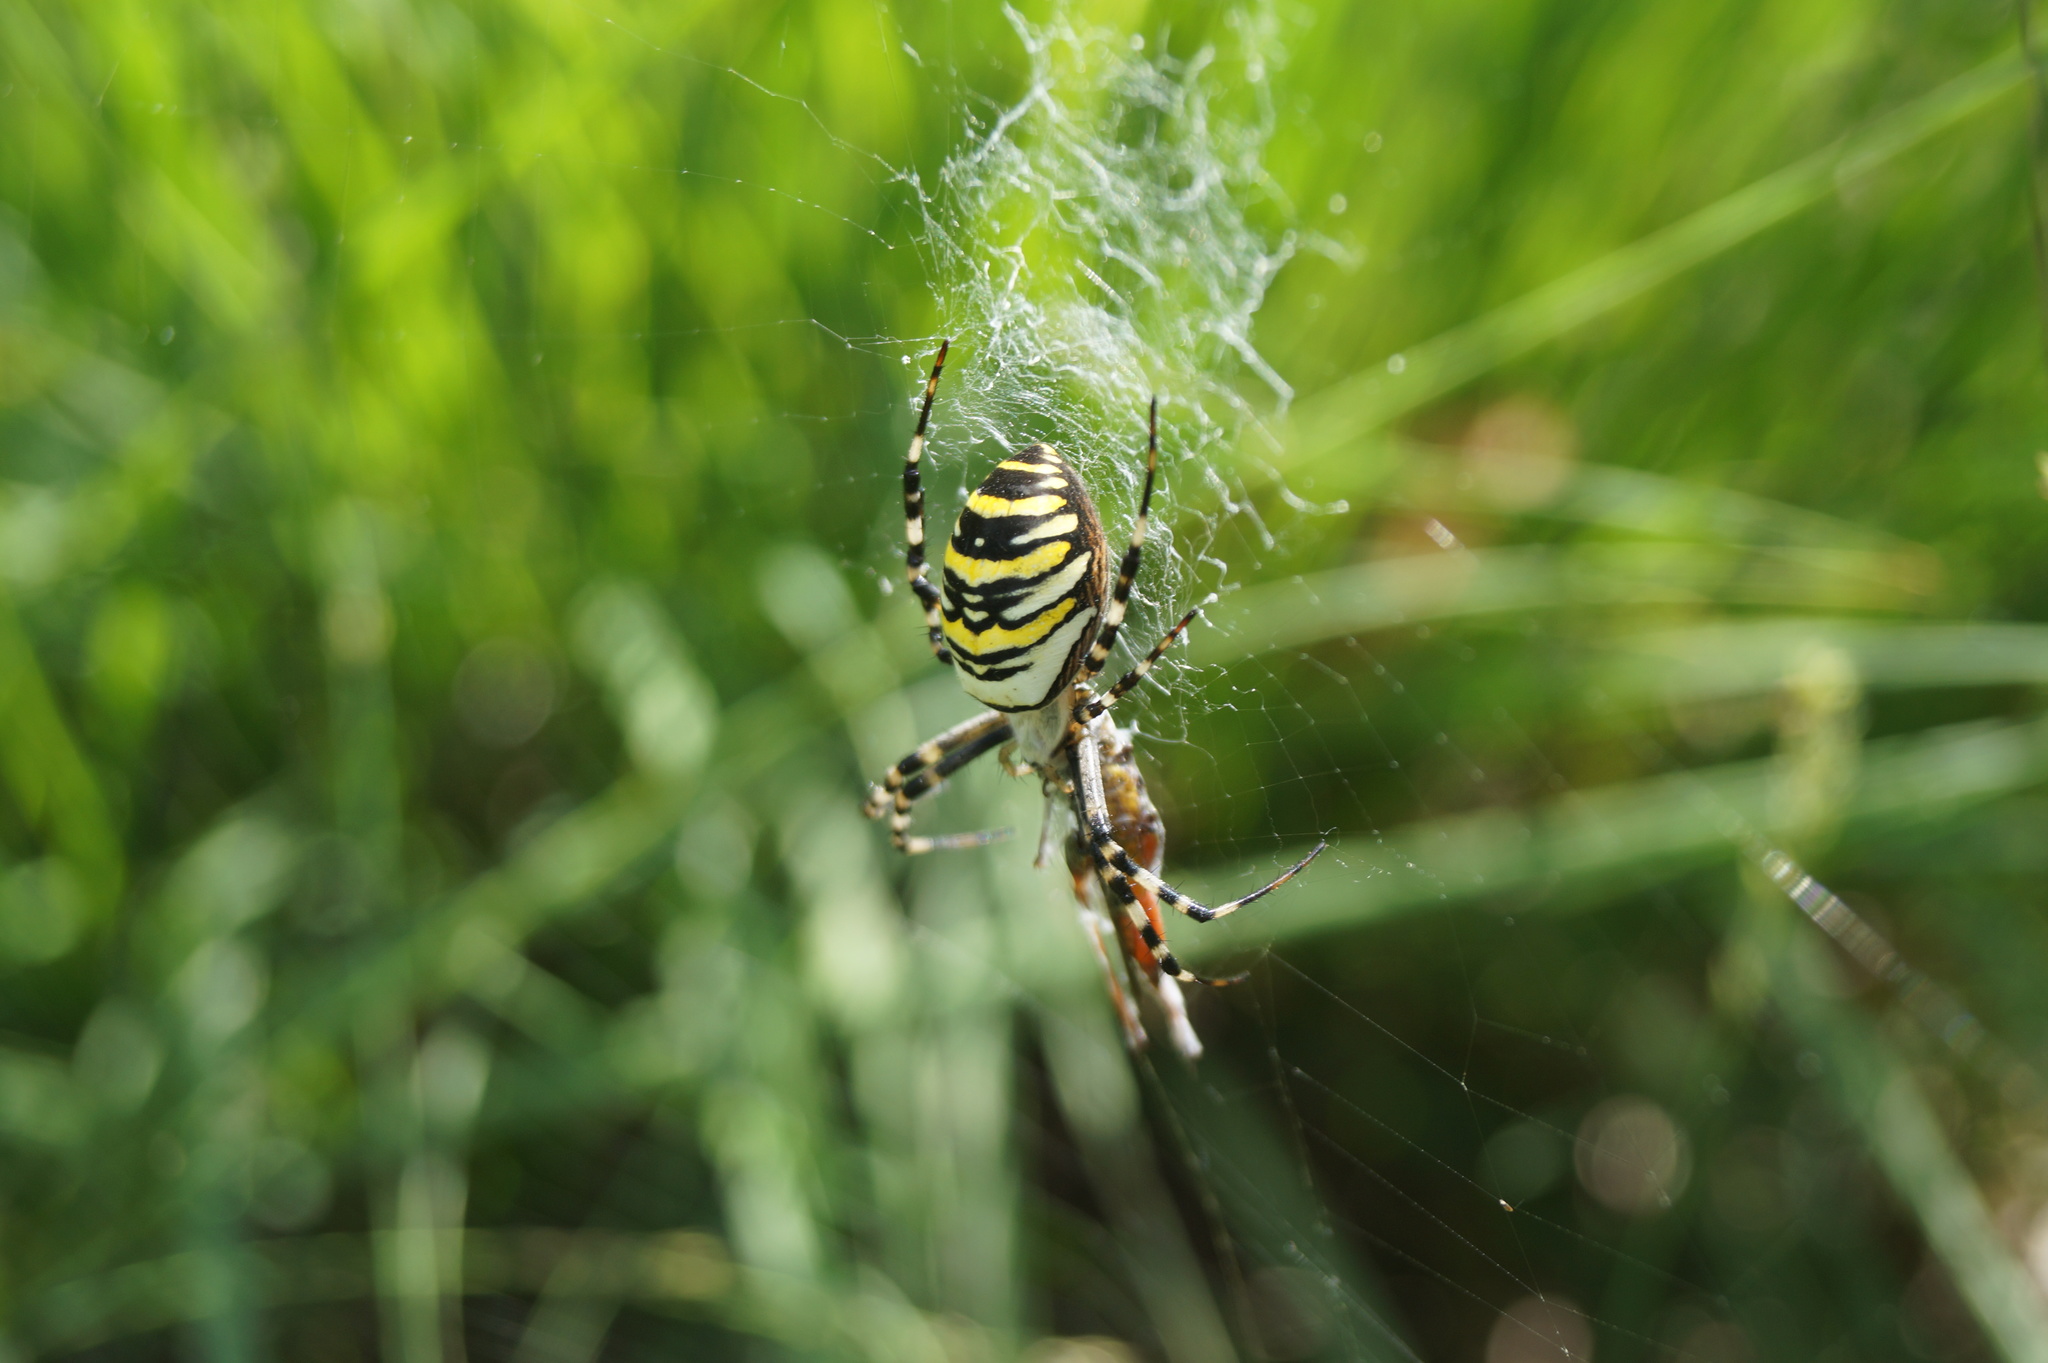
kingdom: Animalia
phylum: Arthropoda
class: Arachnida
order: Araneae
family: Araneidae
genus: Argiope
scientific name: Argiope bruennichi
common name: Wasp spider
